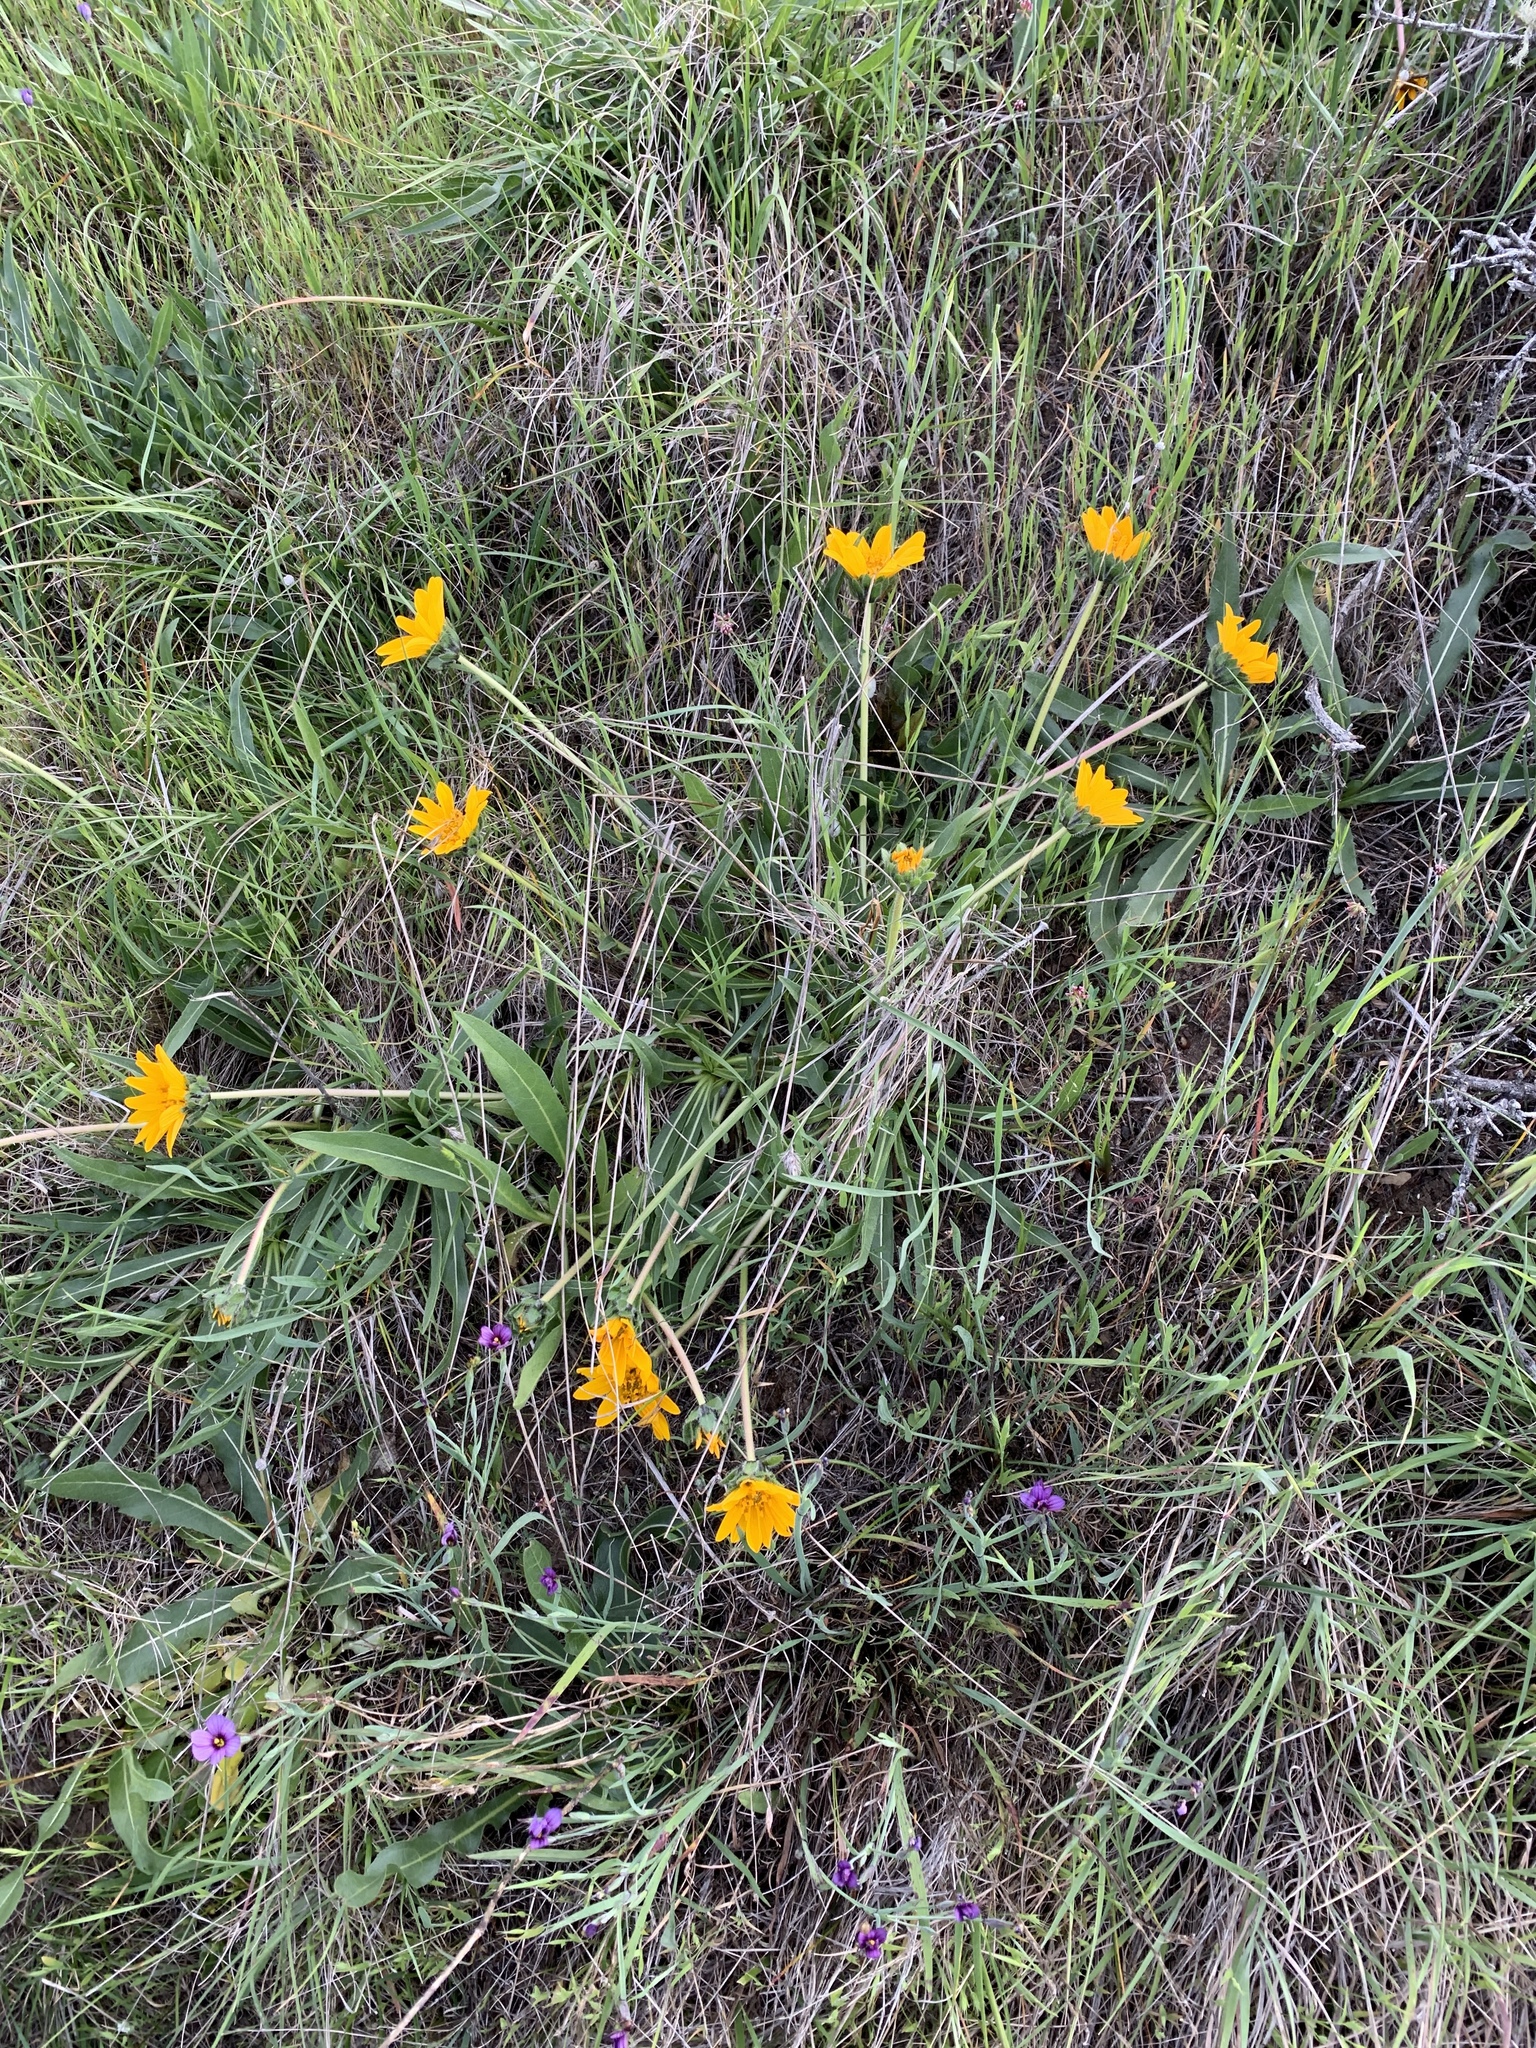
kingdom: Plantae
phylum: Tracheophyta
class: Magnoliopsida
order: Asterales
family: Asteraceae
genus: Wyethia
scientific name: Wyethia angustifolia
